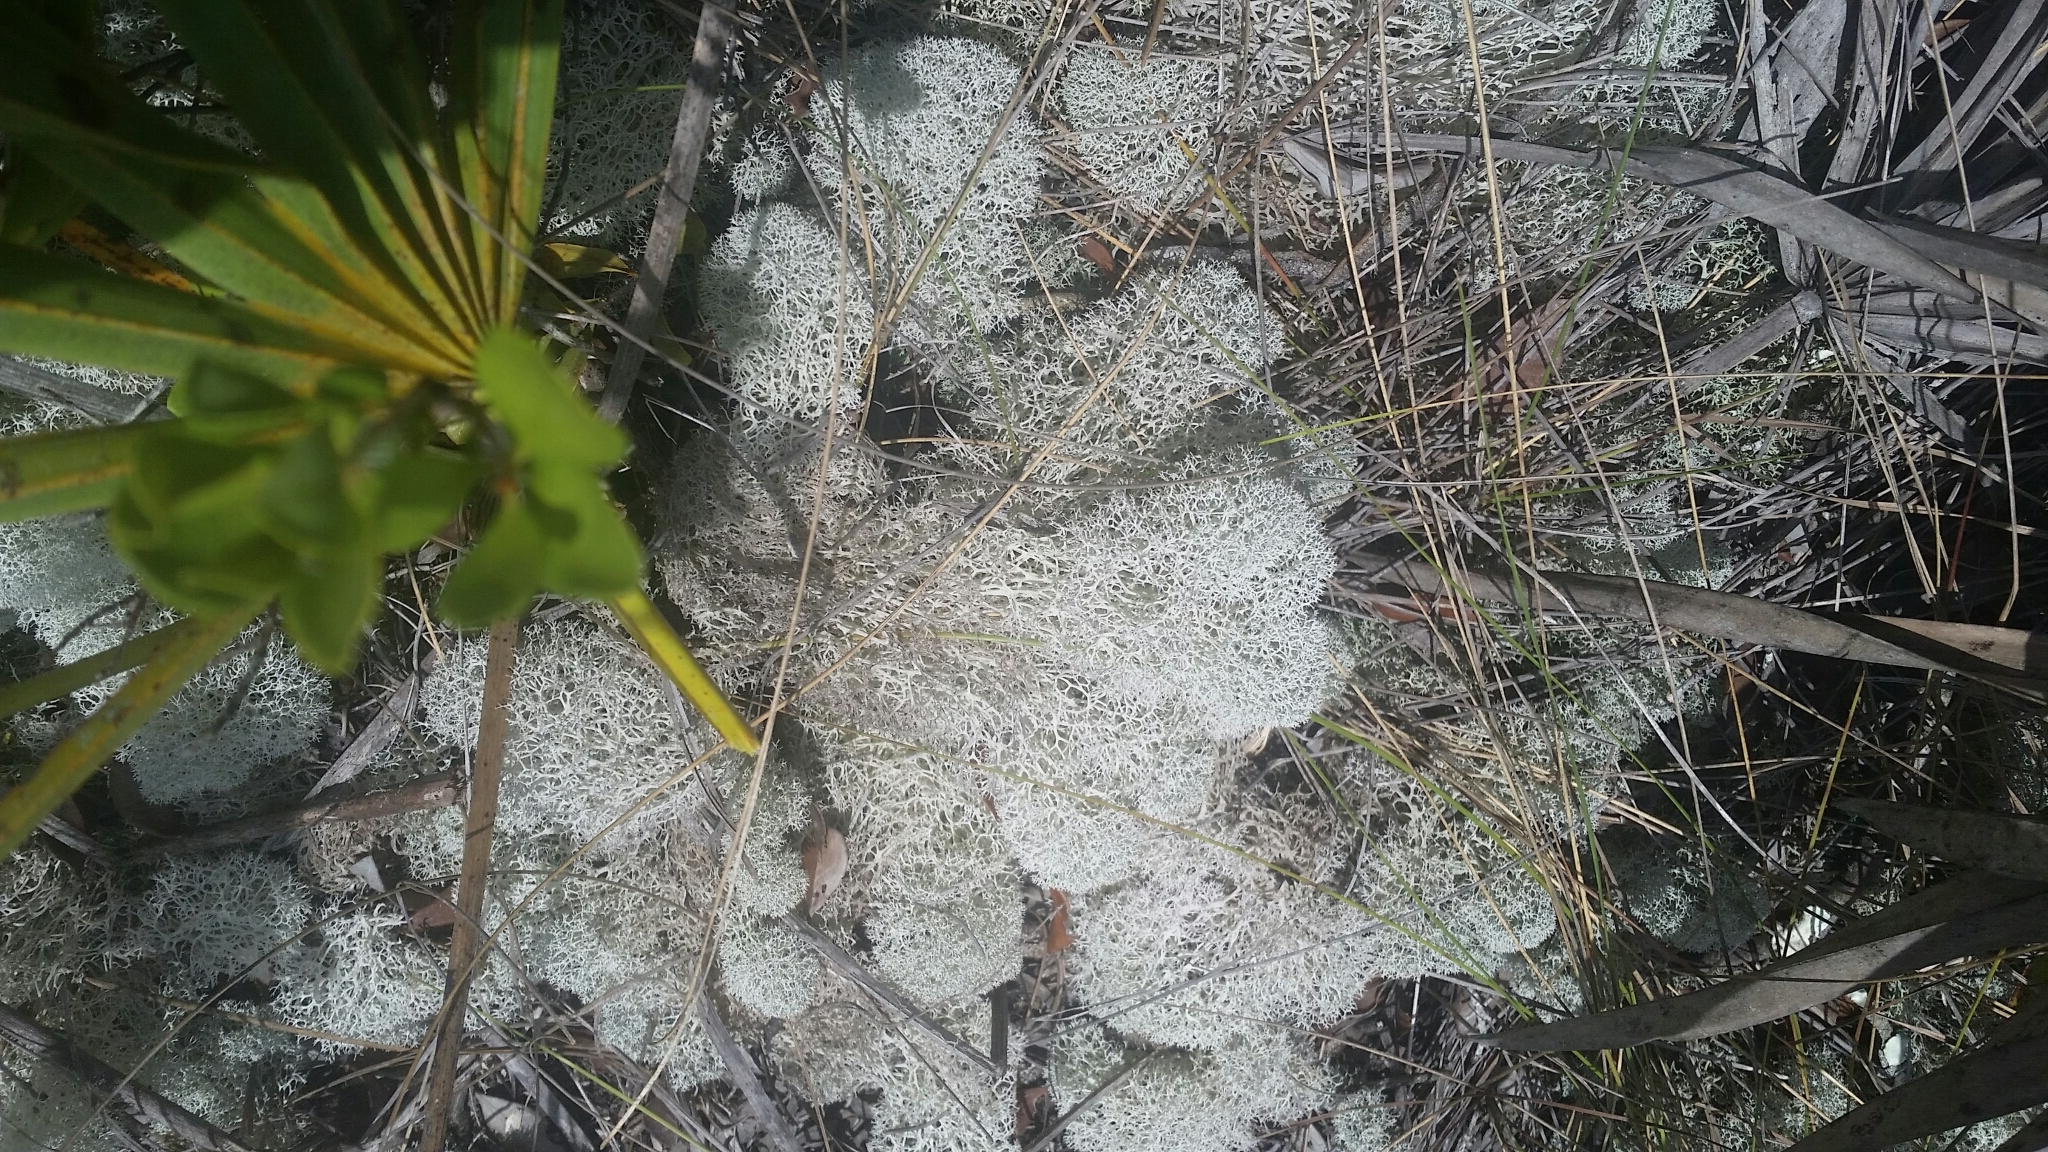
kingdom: Fungi
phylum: Ascomycota
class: Lecanoromycetes
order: Lecanorales
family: Cladoniaceae
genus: Cladonia
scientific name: Cladonia evansii
